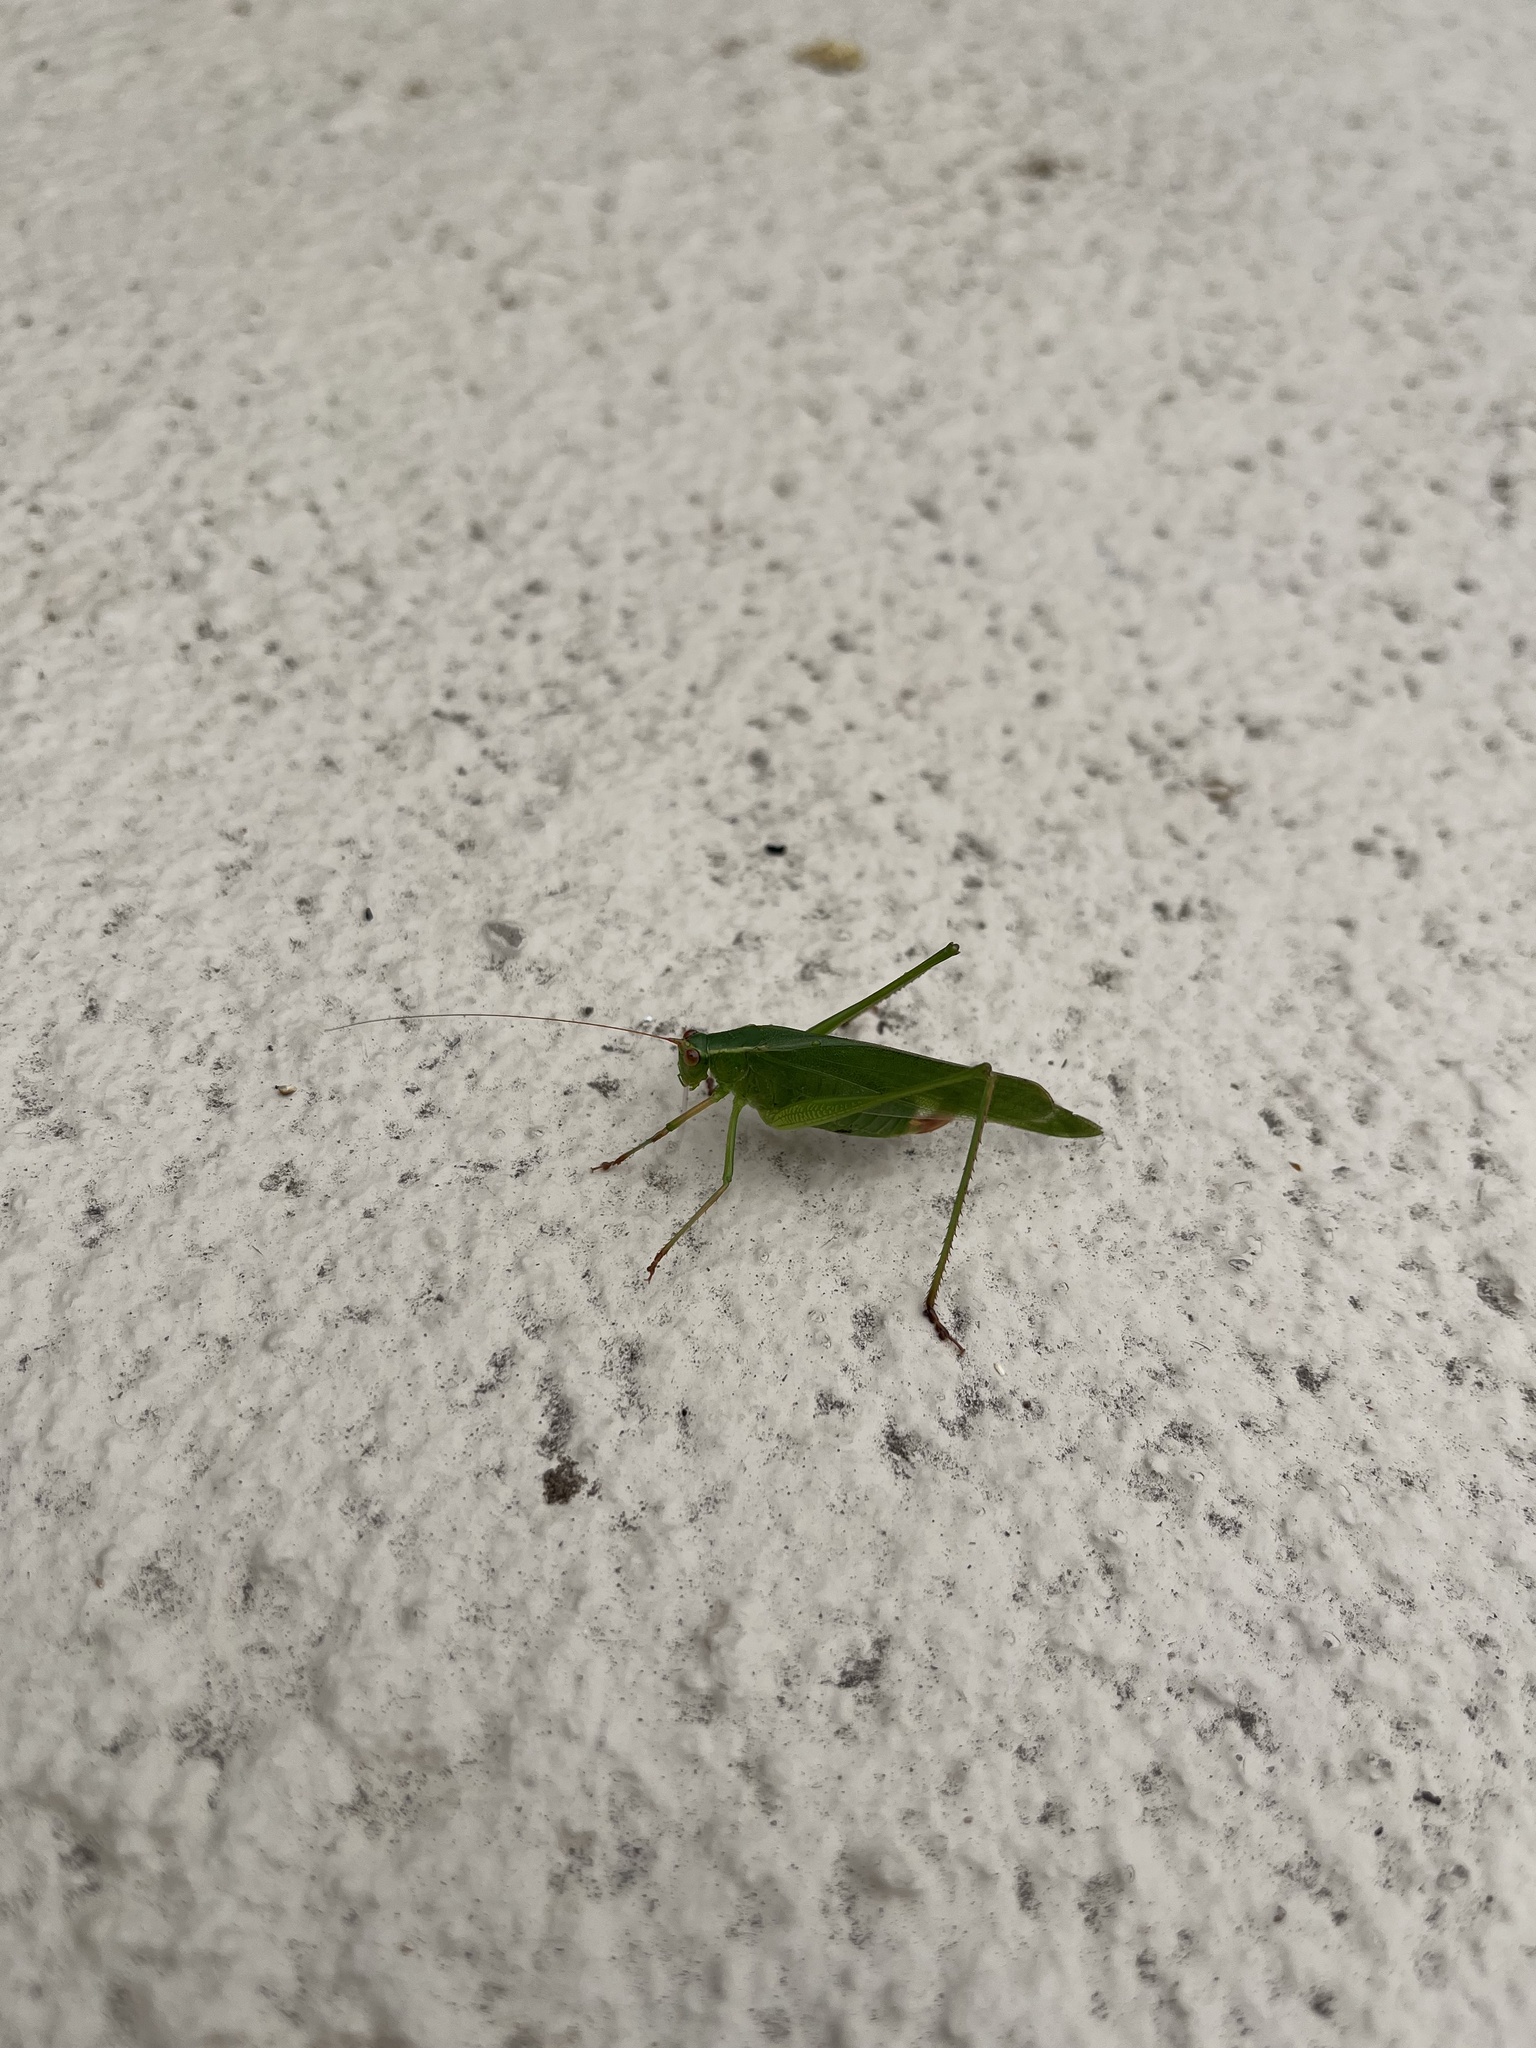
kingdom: Animalia
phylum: Arthropoda
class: Insecta
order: Orthoptera
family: Tettigoniidae
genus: Scudderia
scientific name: Scudderia mexicana
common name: Mexican bush katydid
